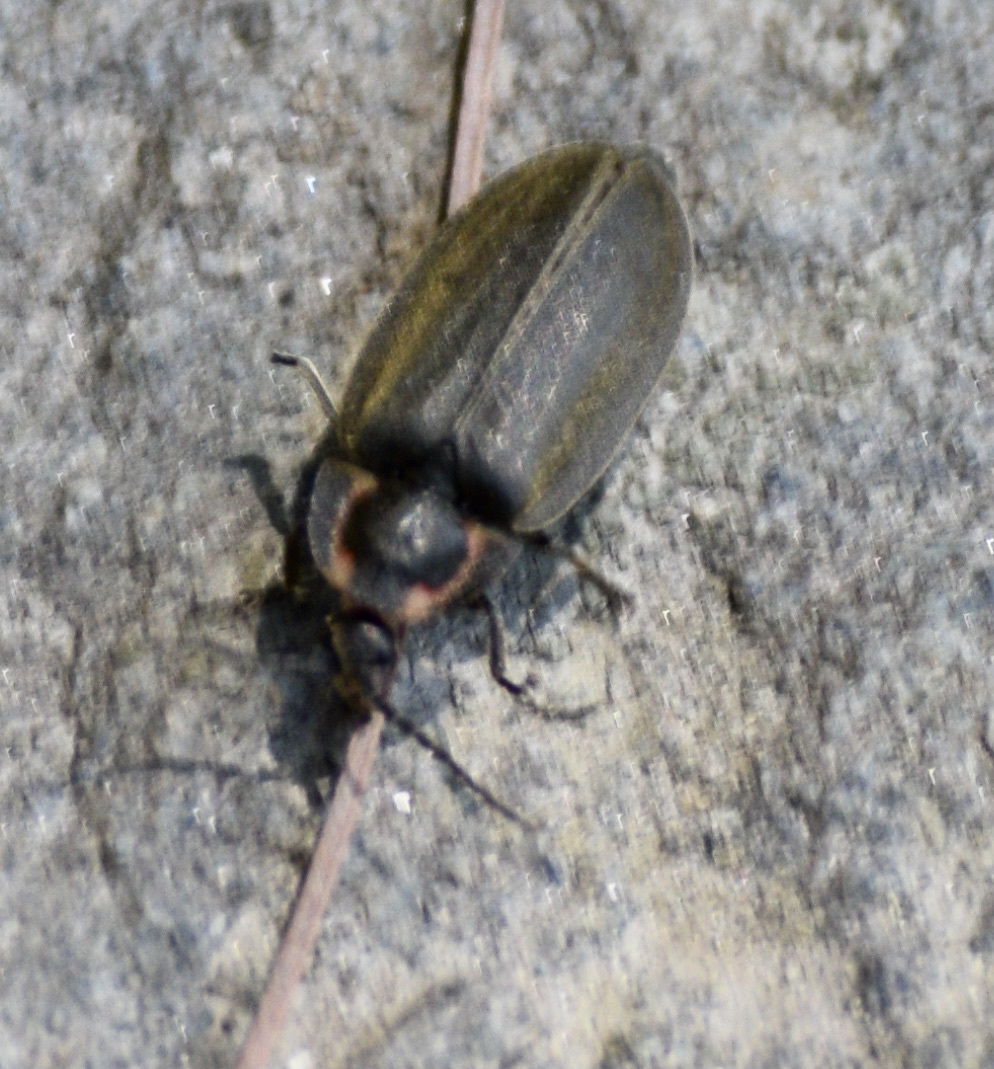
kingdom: Animalia
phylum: Arthropoda
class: Insecta
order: Coleoptera
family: Lampyridae
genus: Photinus
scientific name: Photinus corrusca
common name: Winter firefly
